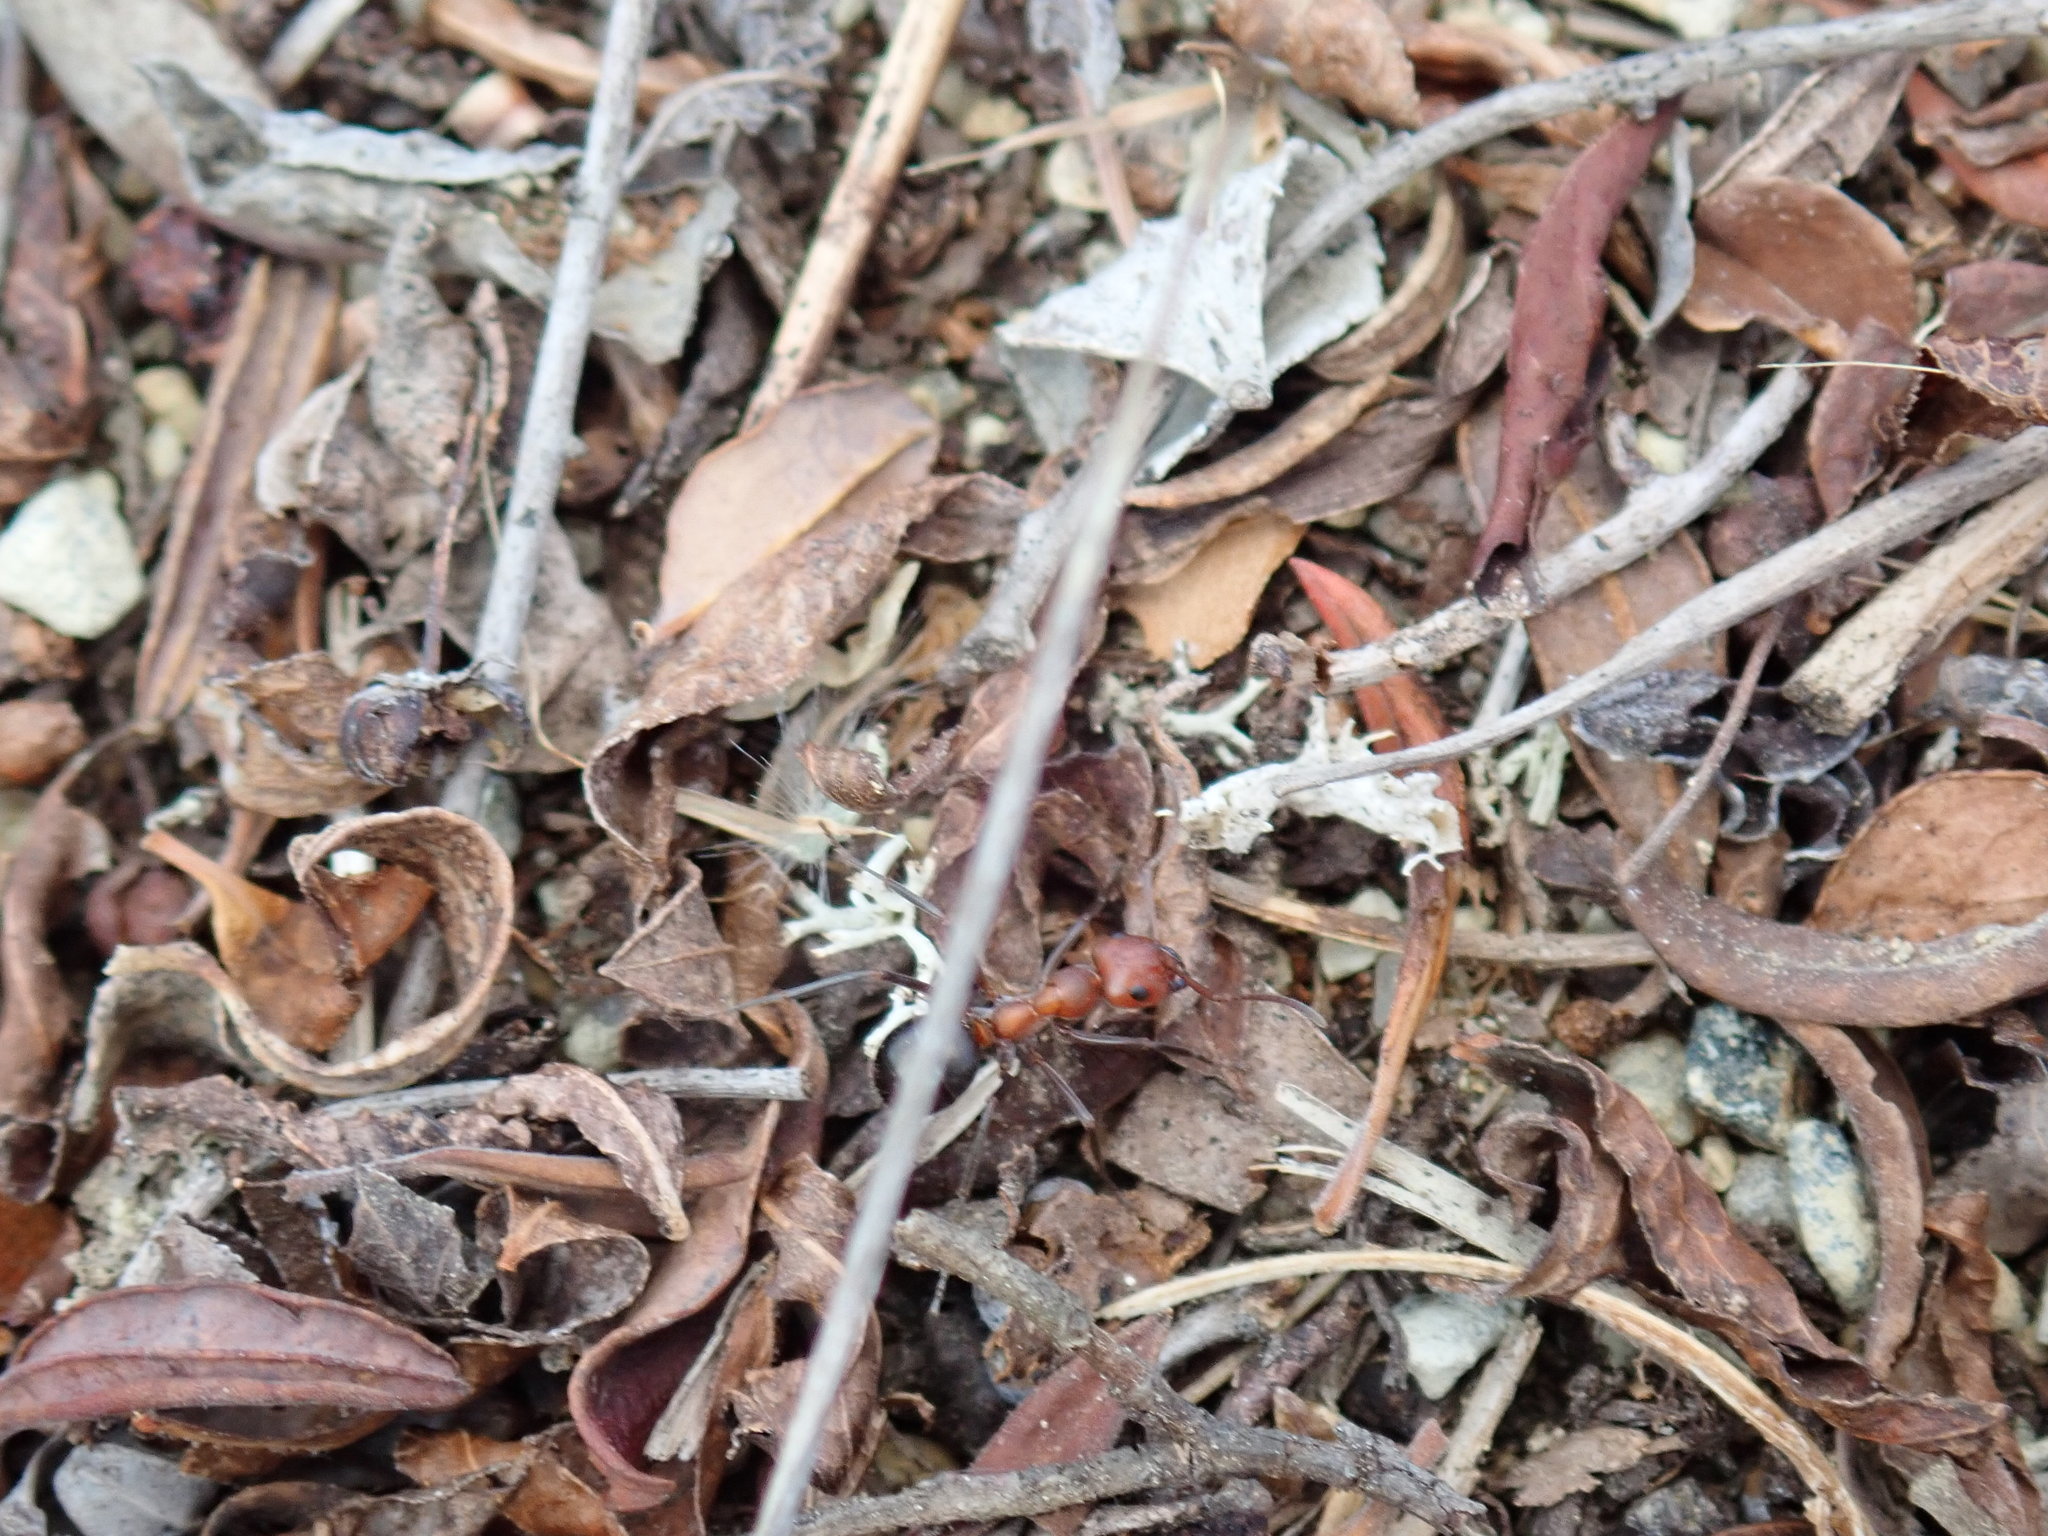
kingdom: Animalia
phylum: Arthropoda
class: Insecta
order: Hymenoptera
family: Formicidae
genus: Formica
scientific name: Formica exsectoides
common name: Allegheny mound ant
